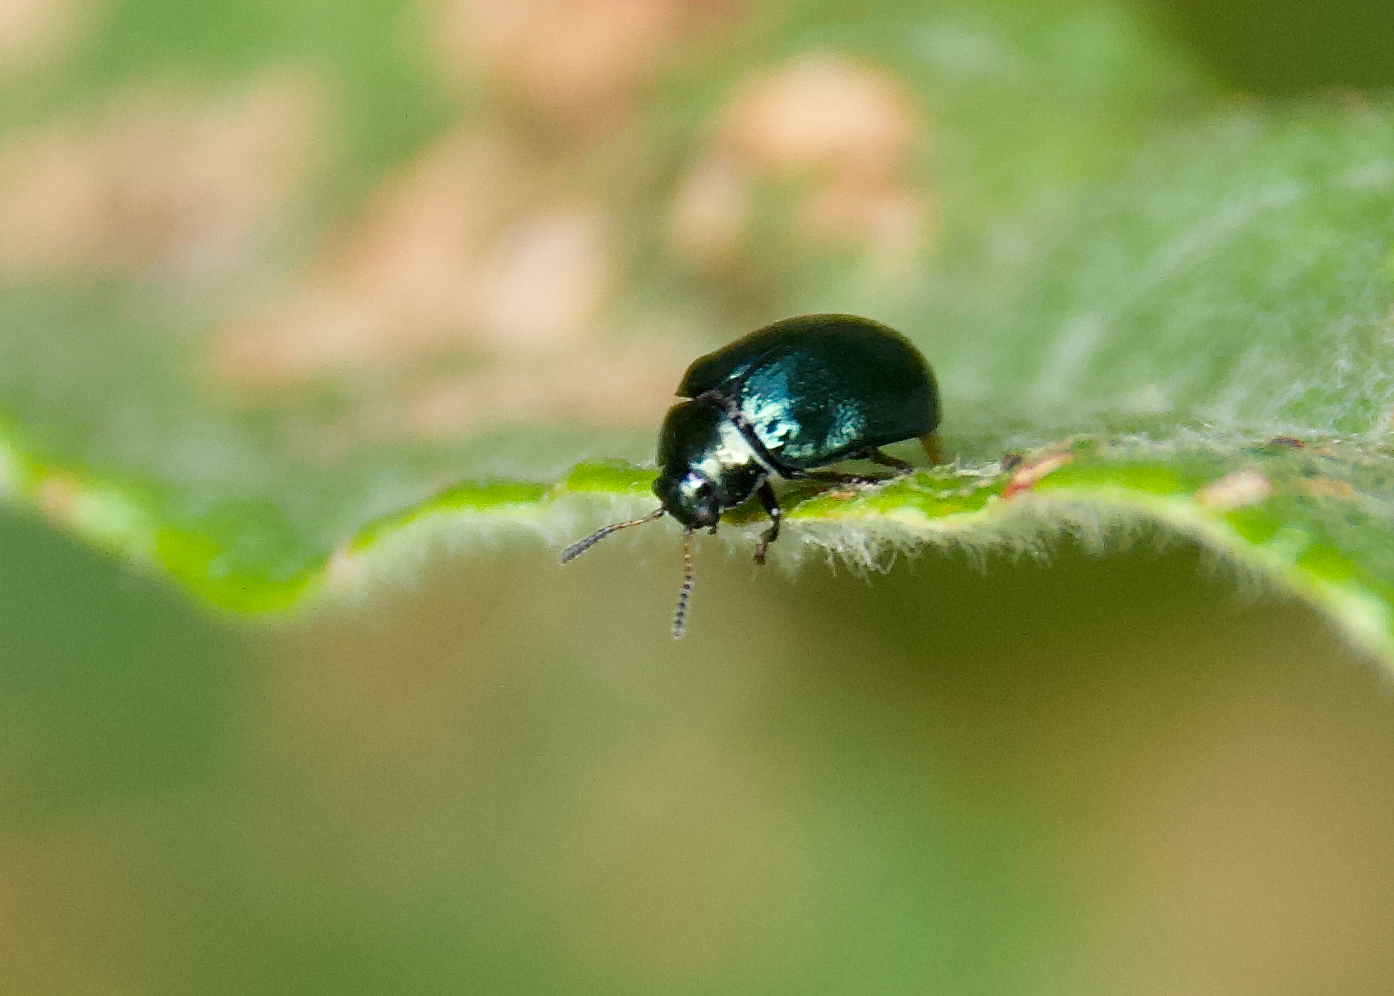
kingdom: Animalia
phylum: Arthropoda
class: Insecta
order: Coleoptera
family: Chrysomelidae
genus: Plagiodera
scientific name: Plagiodera versicolora
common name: Imported willow leaf beetle
